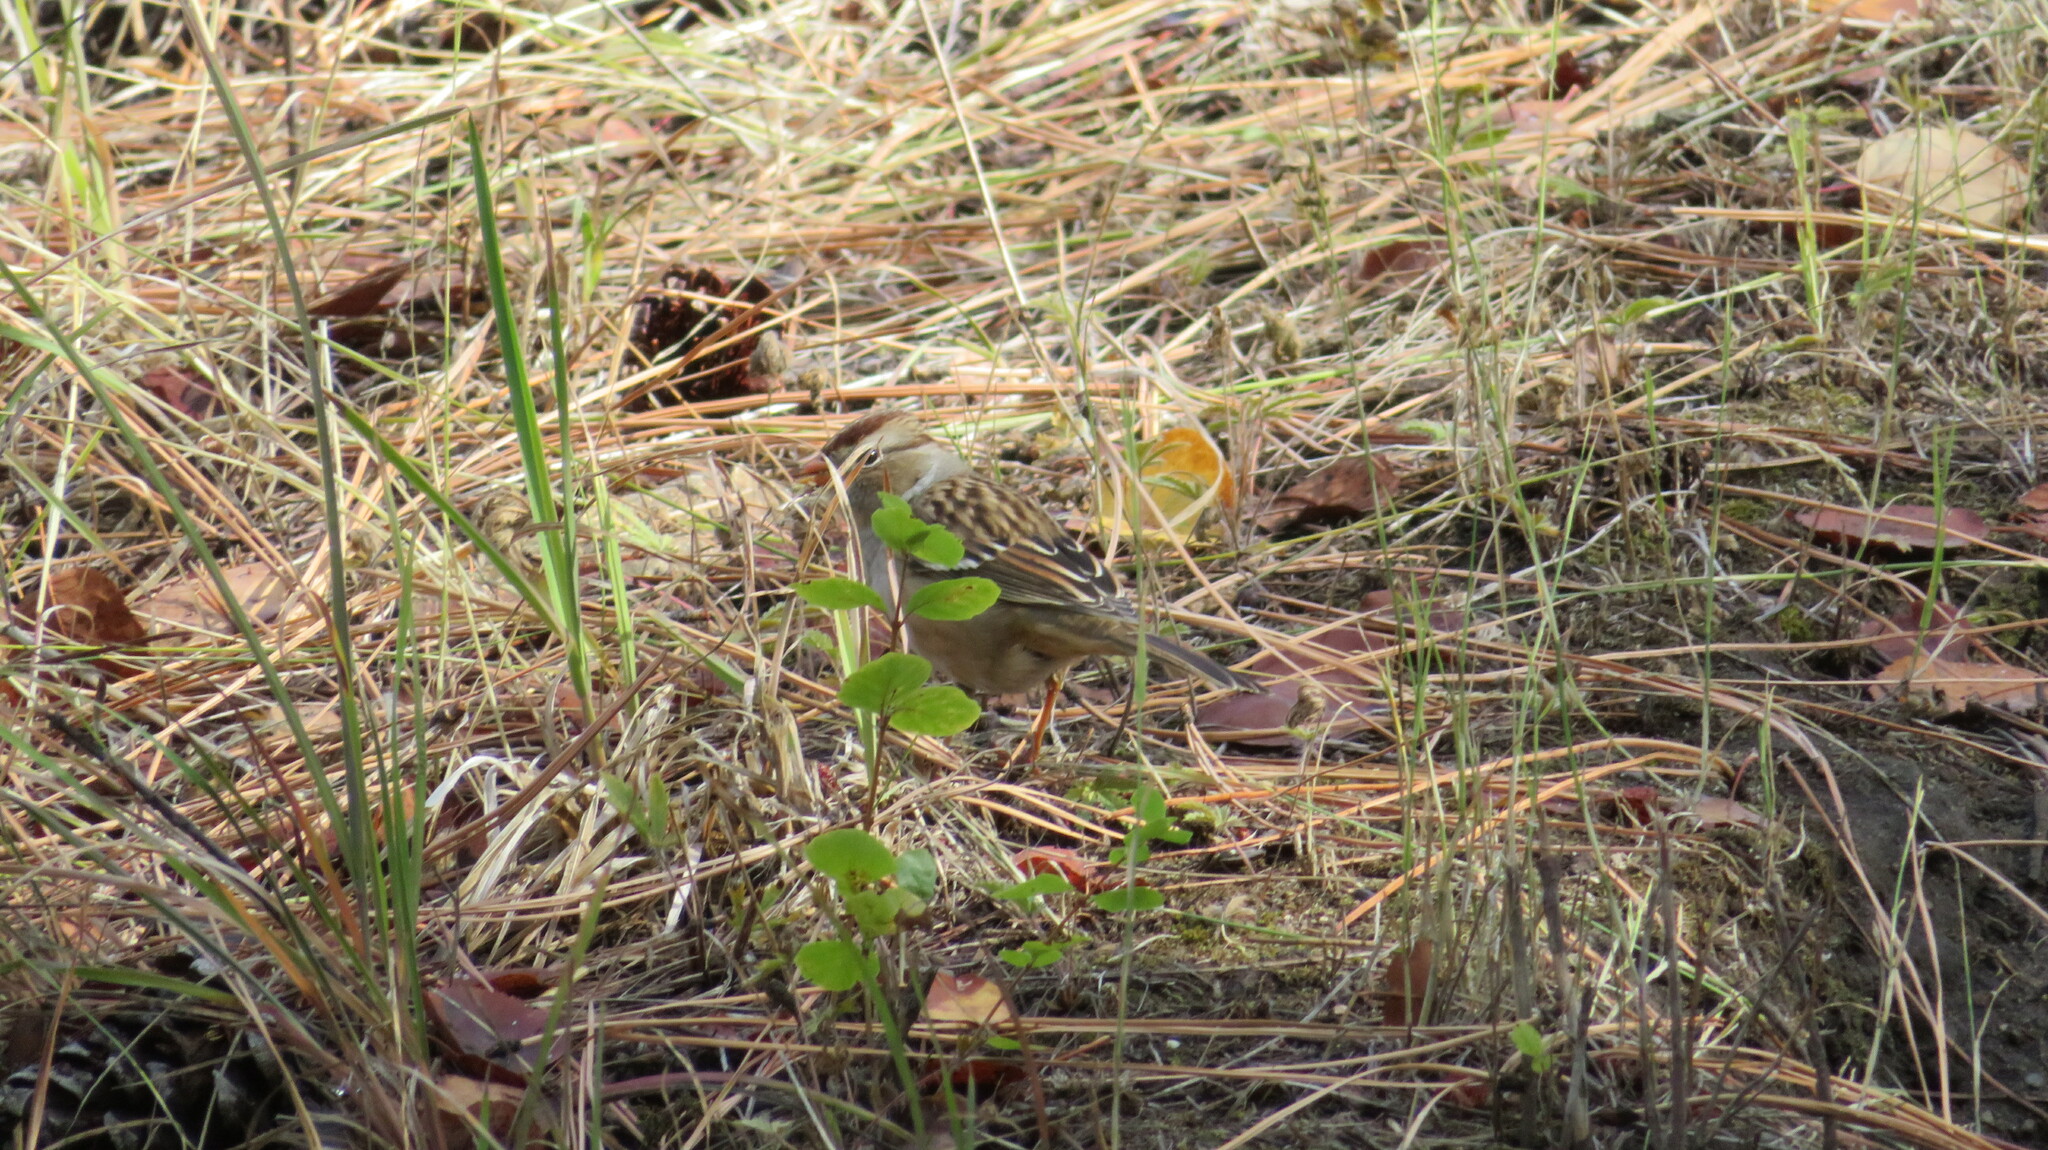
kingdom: Animalia
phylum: Chordata
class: Aves
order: Passeriformes
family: Passerellidae
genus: Zonotrichia
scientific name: Zonotrichia leucophrys
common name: White-crowned sparrow
